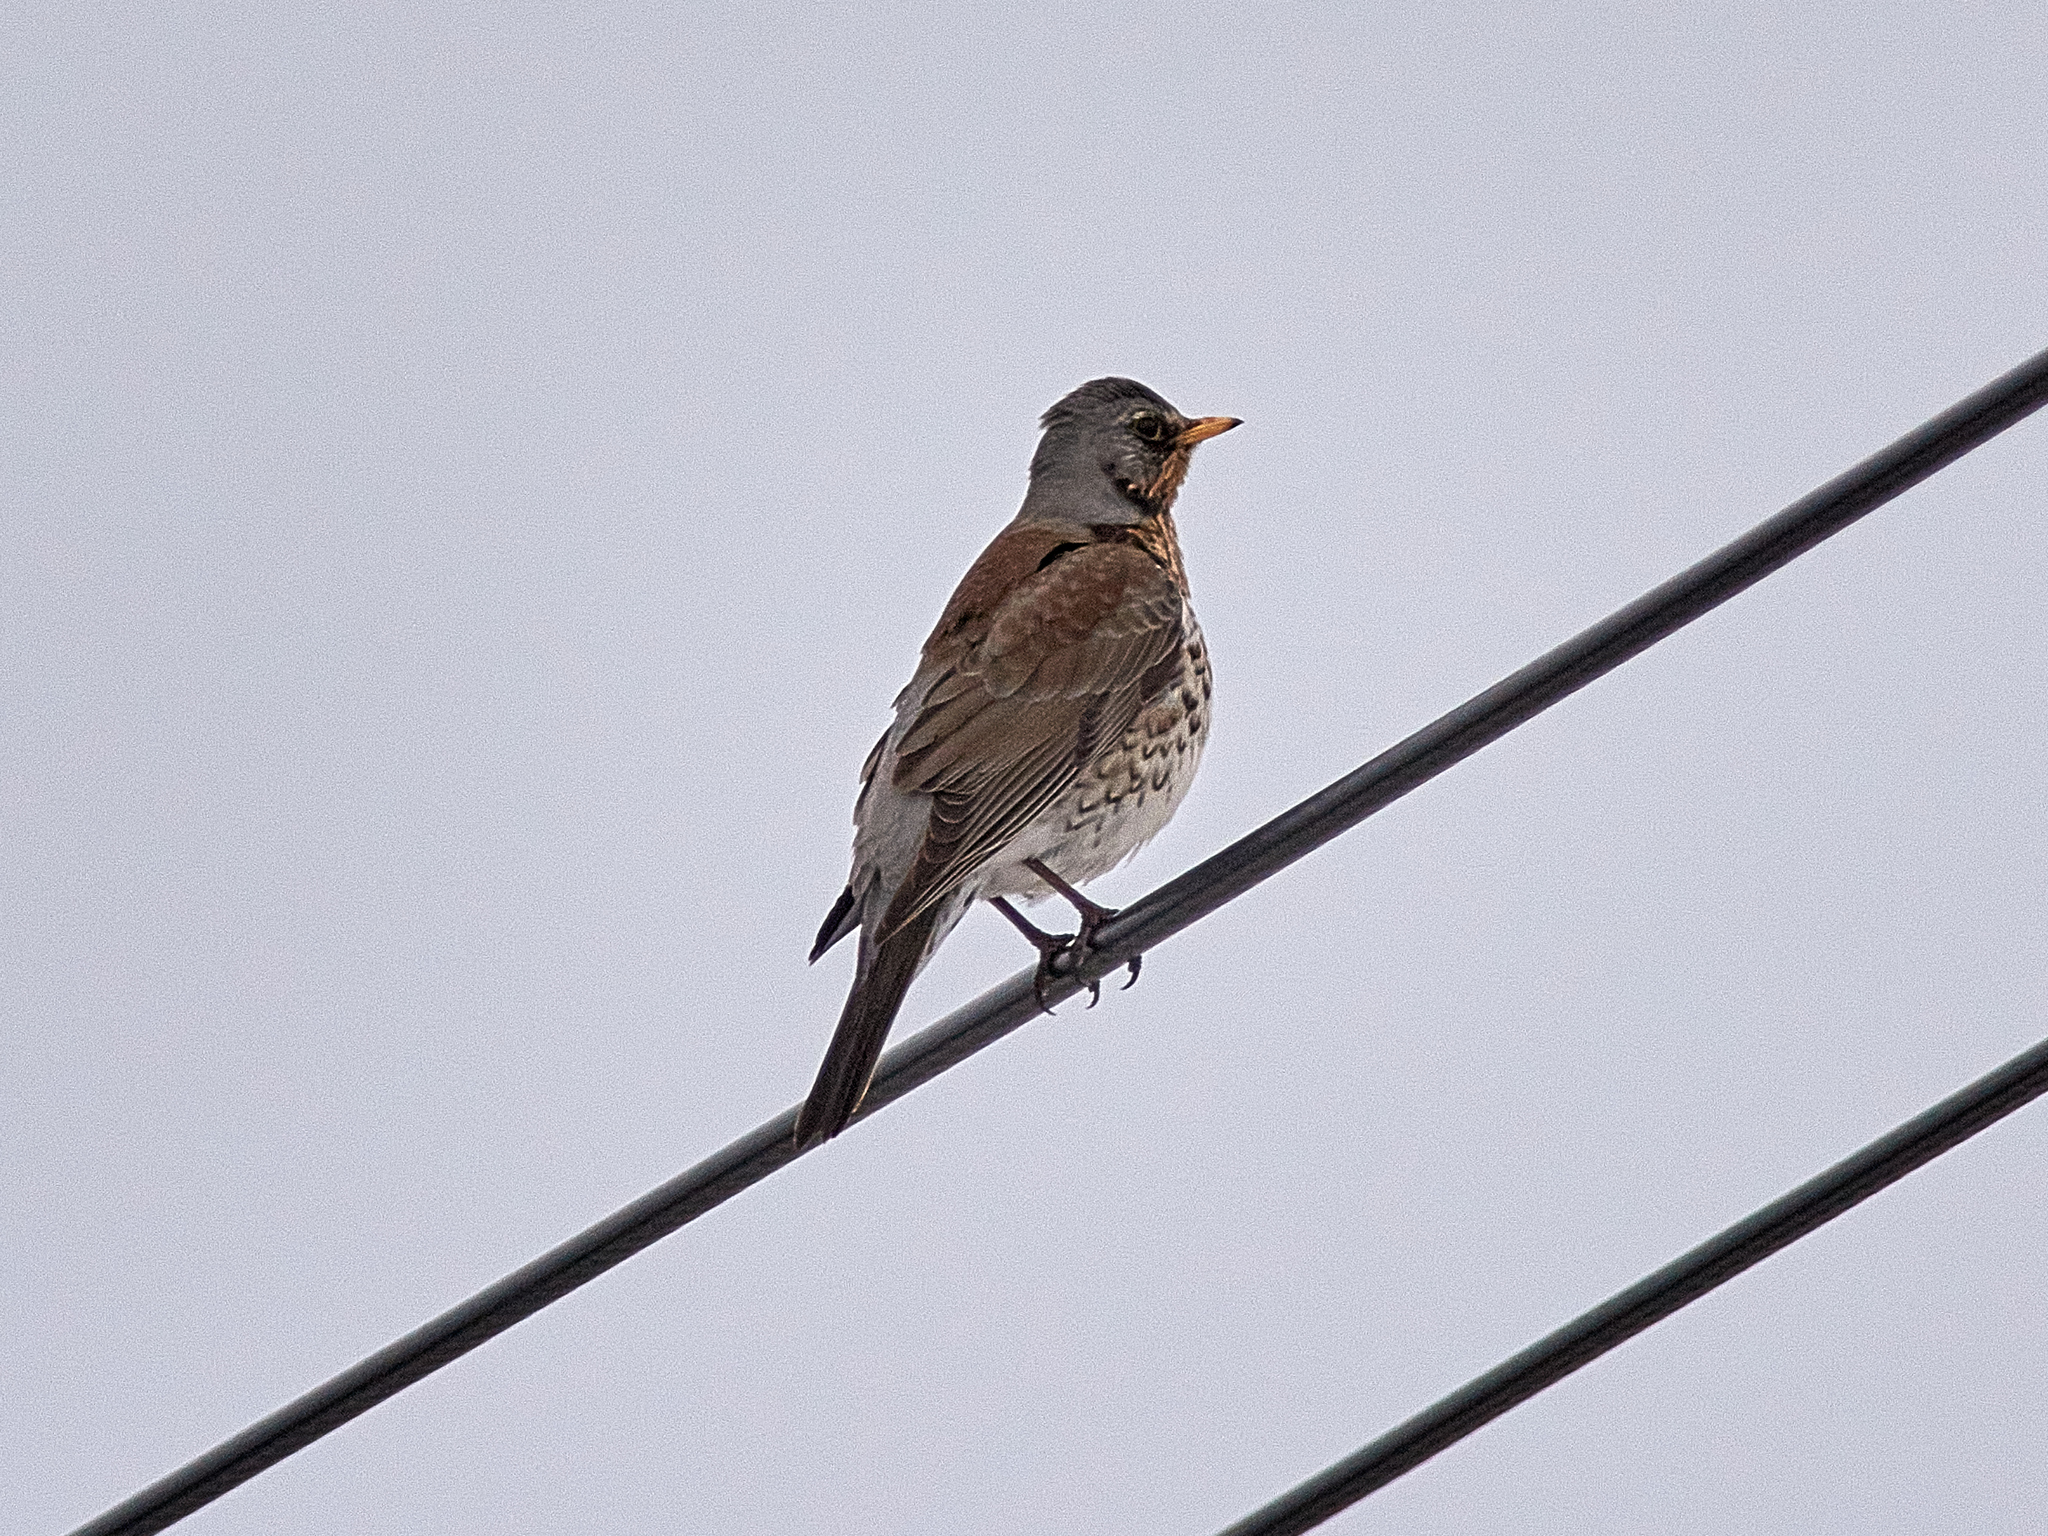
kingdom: Animalia
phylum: Chordata
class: Aves
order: Passeriformes
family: Turdidae
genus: Turdus
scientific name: Turdus pilaris
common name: Fieldfare
